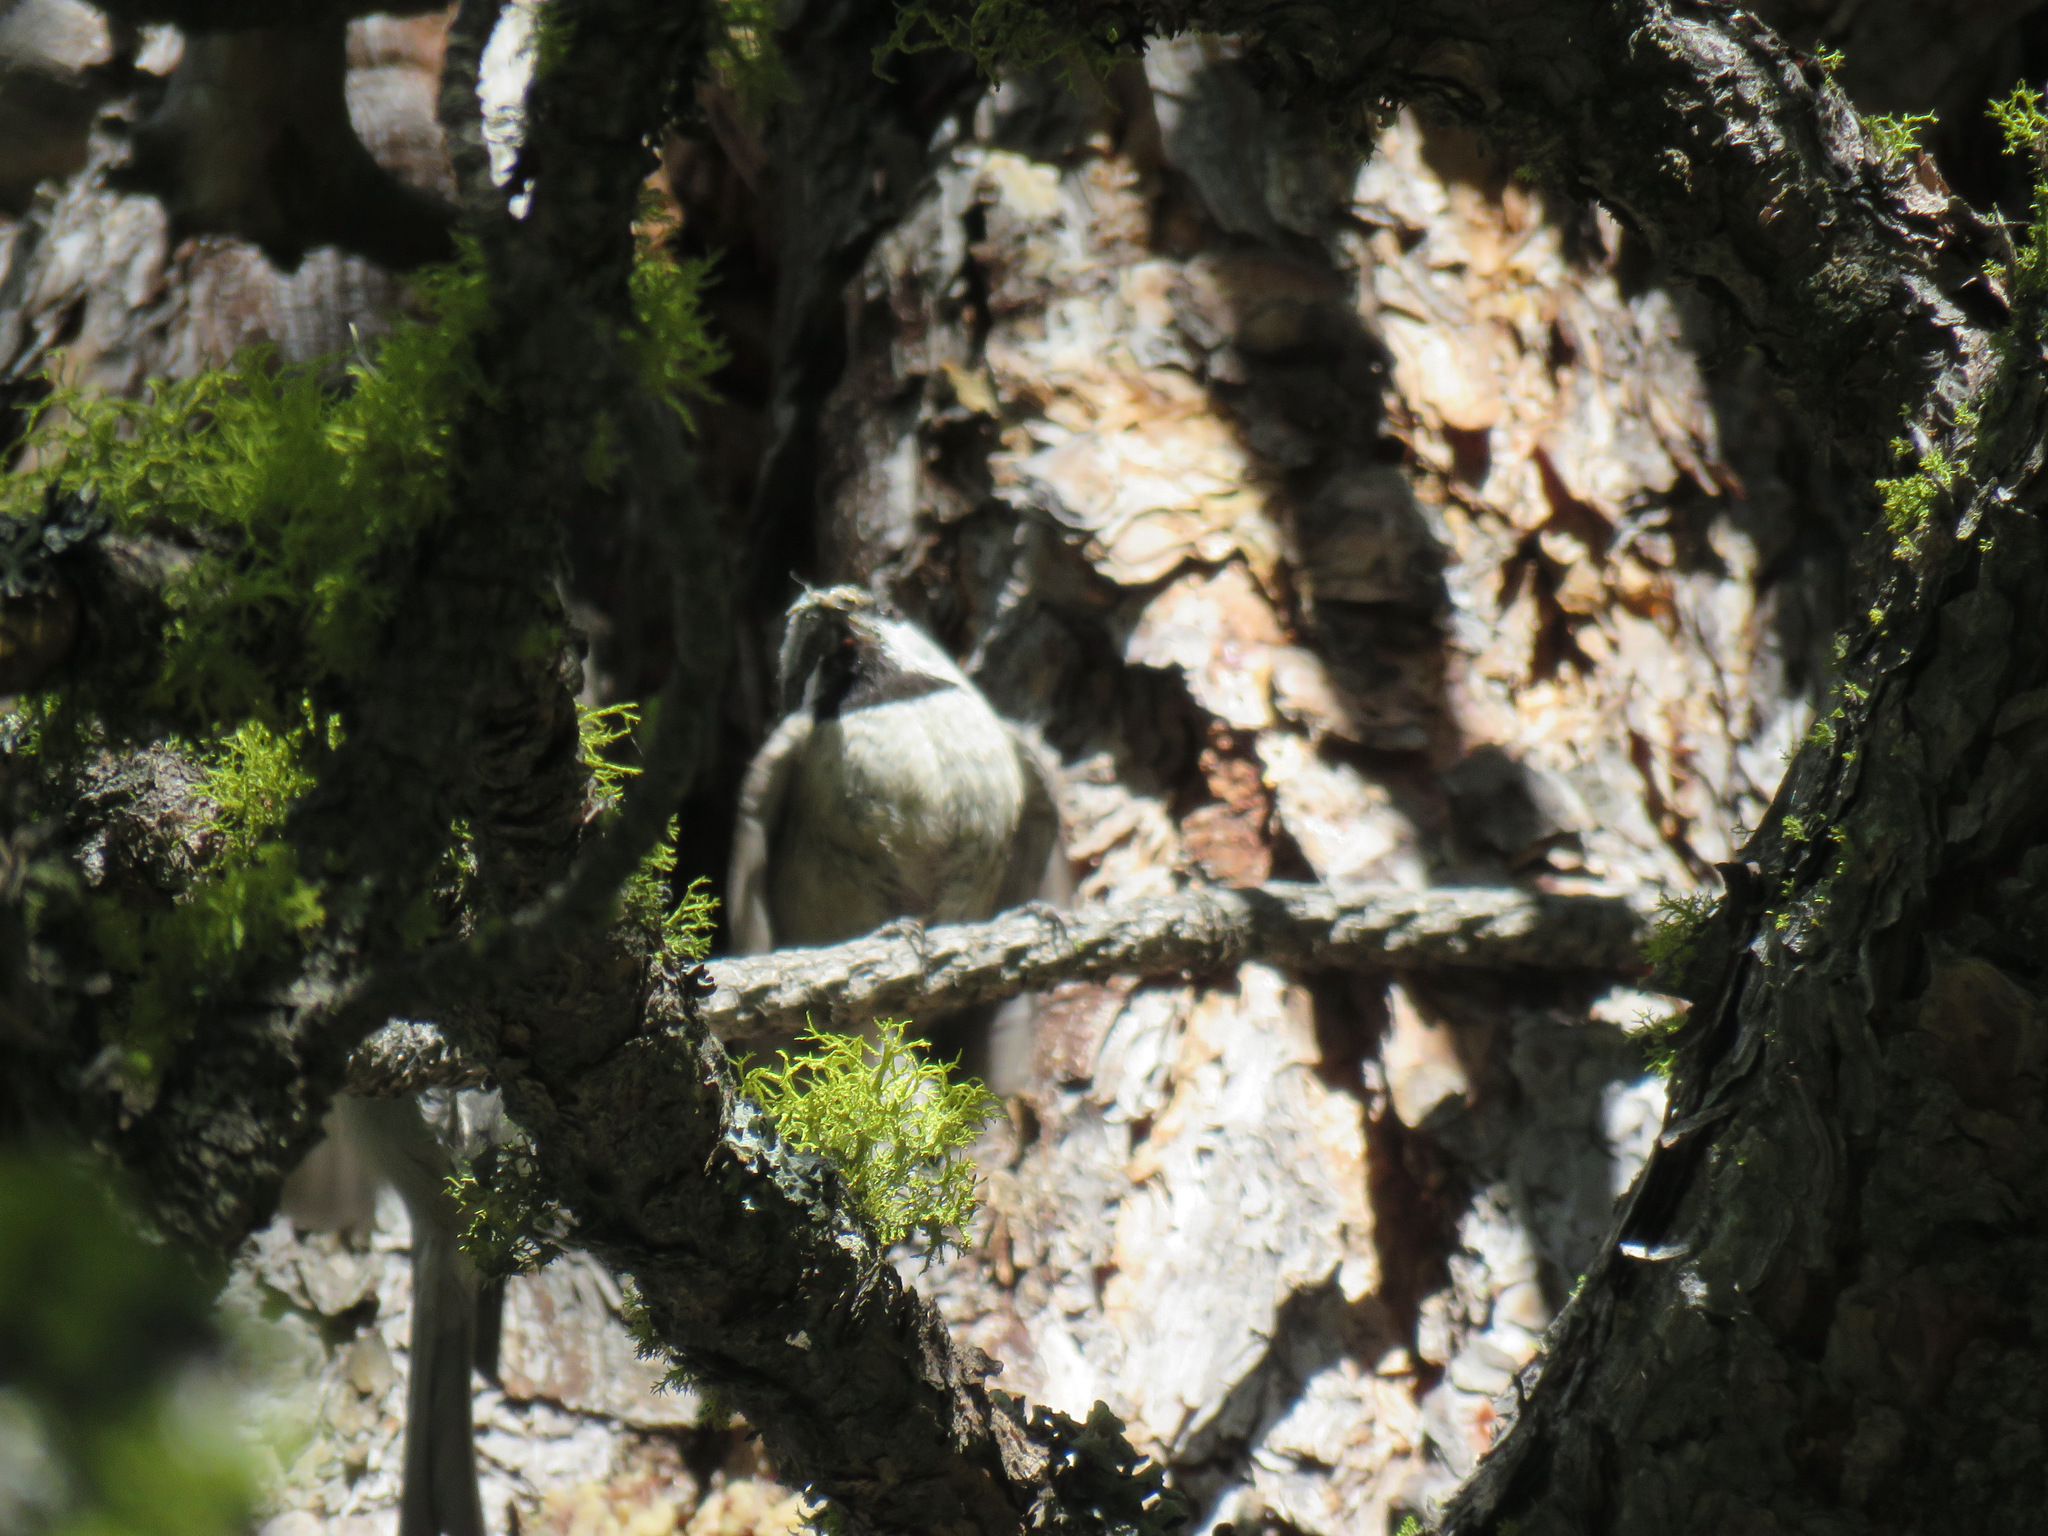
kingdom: Animalia
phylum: Chordata
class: Aves
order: Passeriformes
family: Paridae
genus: Poecile
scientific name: Poecile gambeli
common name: Mountain chickadee
